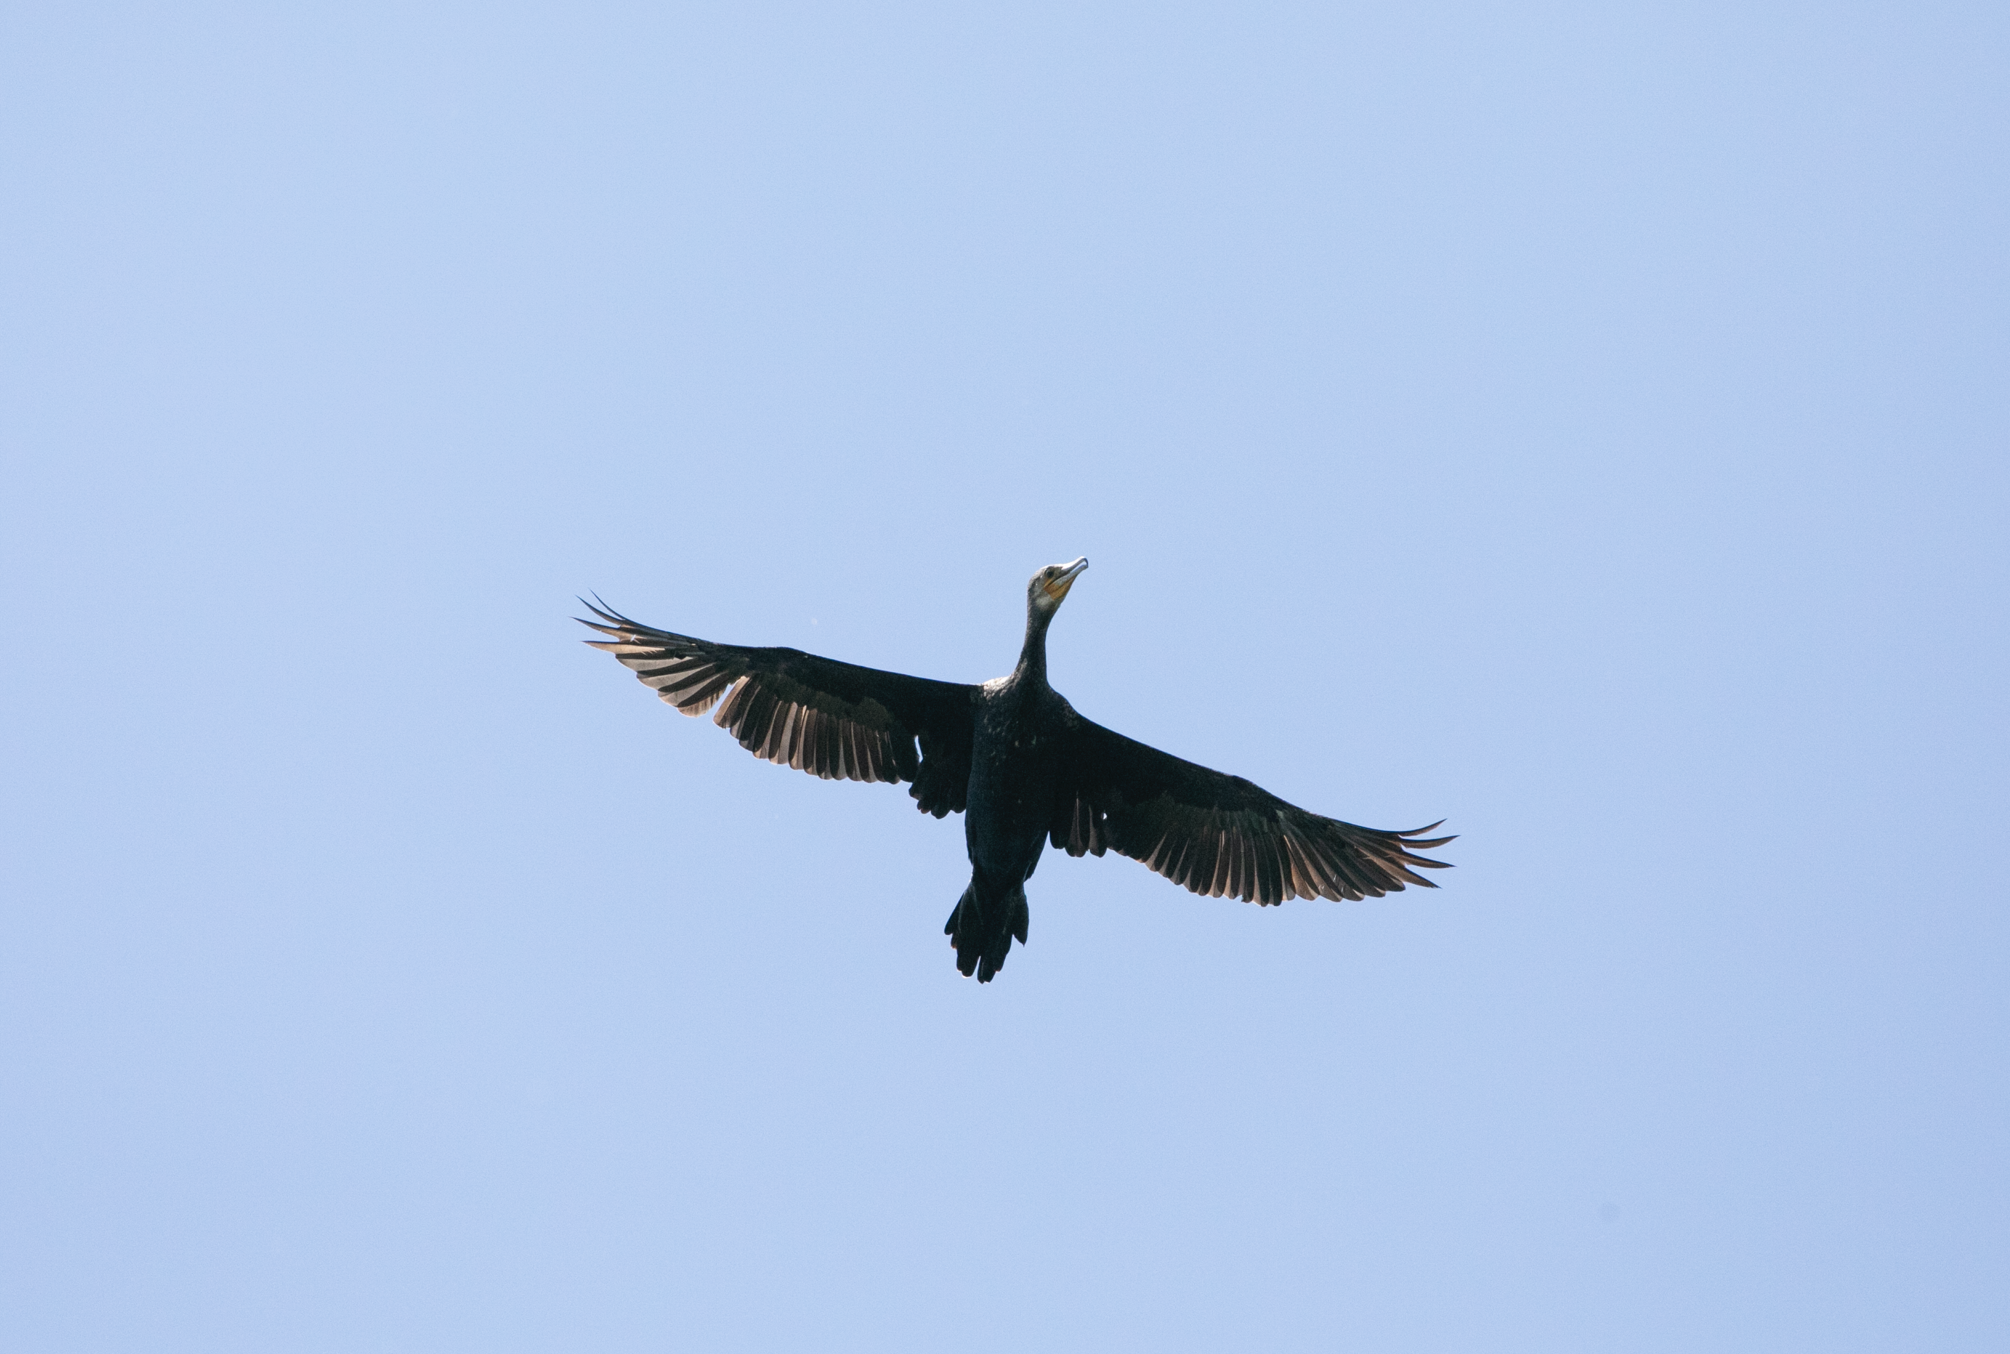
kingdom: Animalia
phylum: Chordata
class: Aves
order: Suliformes
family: Phalacrocoracidae
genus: Phalacrocorax
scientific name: Phalacrocorax carbo
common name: Great cormorant
